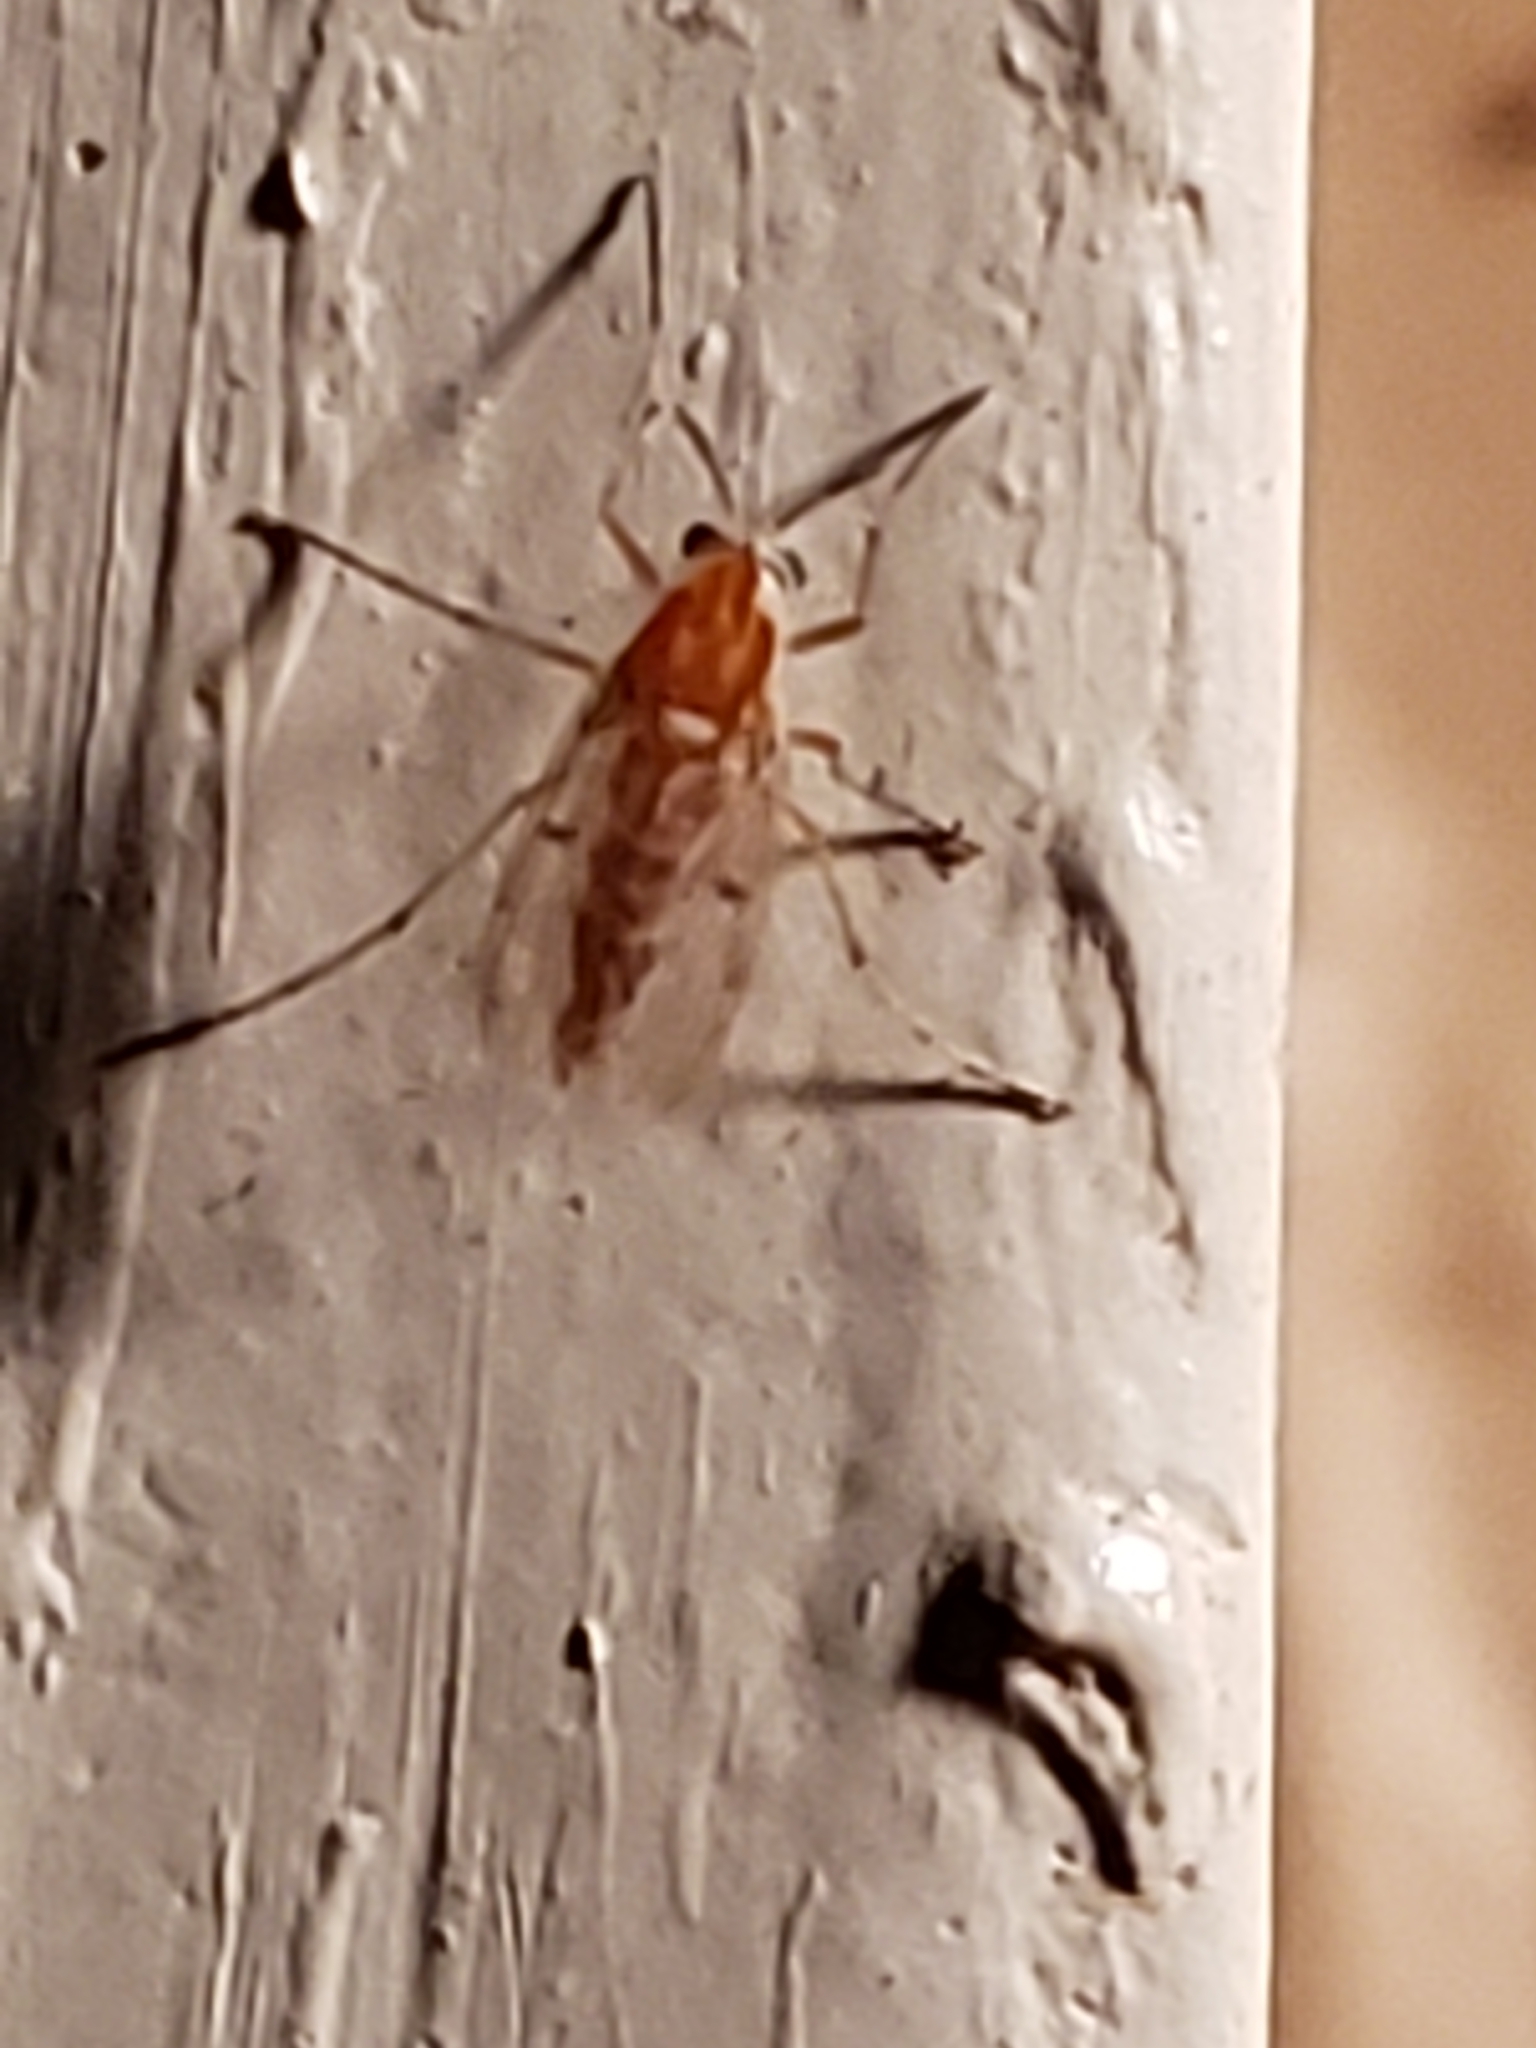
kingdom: Animalia
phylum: Arthropoda
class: Insecta
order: Diptera
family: Chironomidae
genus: Procladius
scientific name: Procladius bellus
